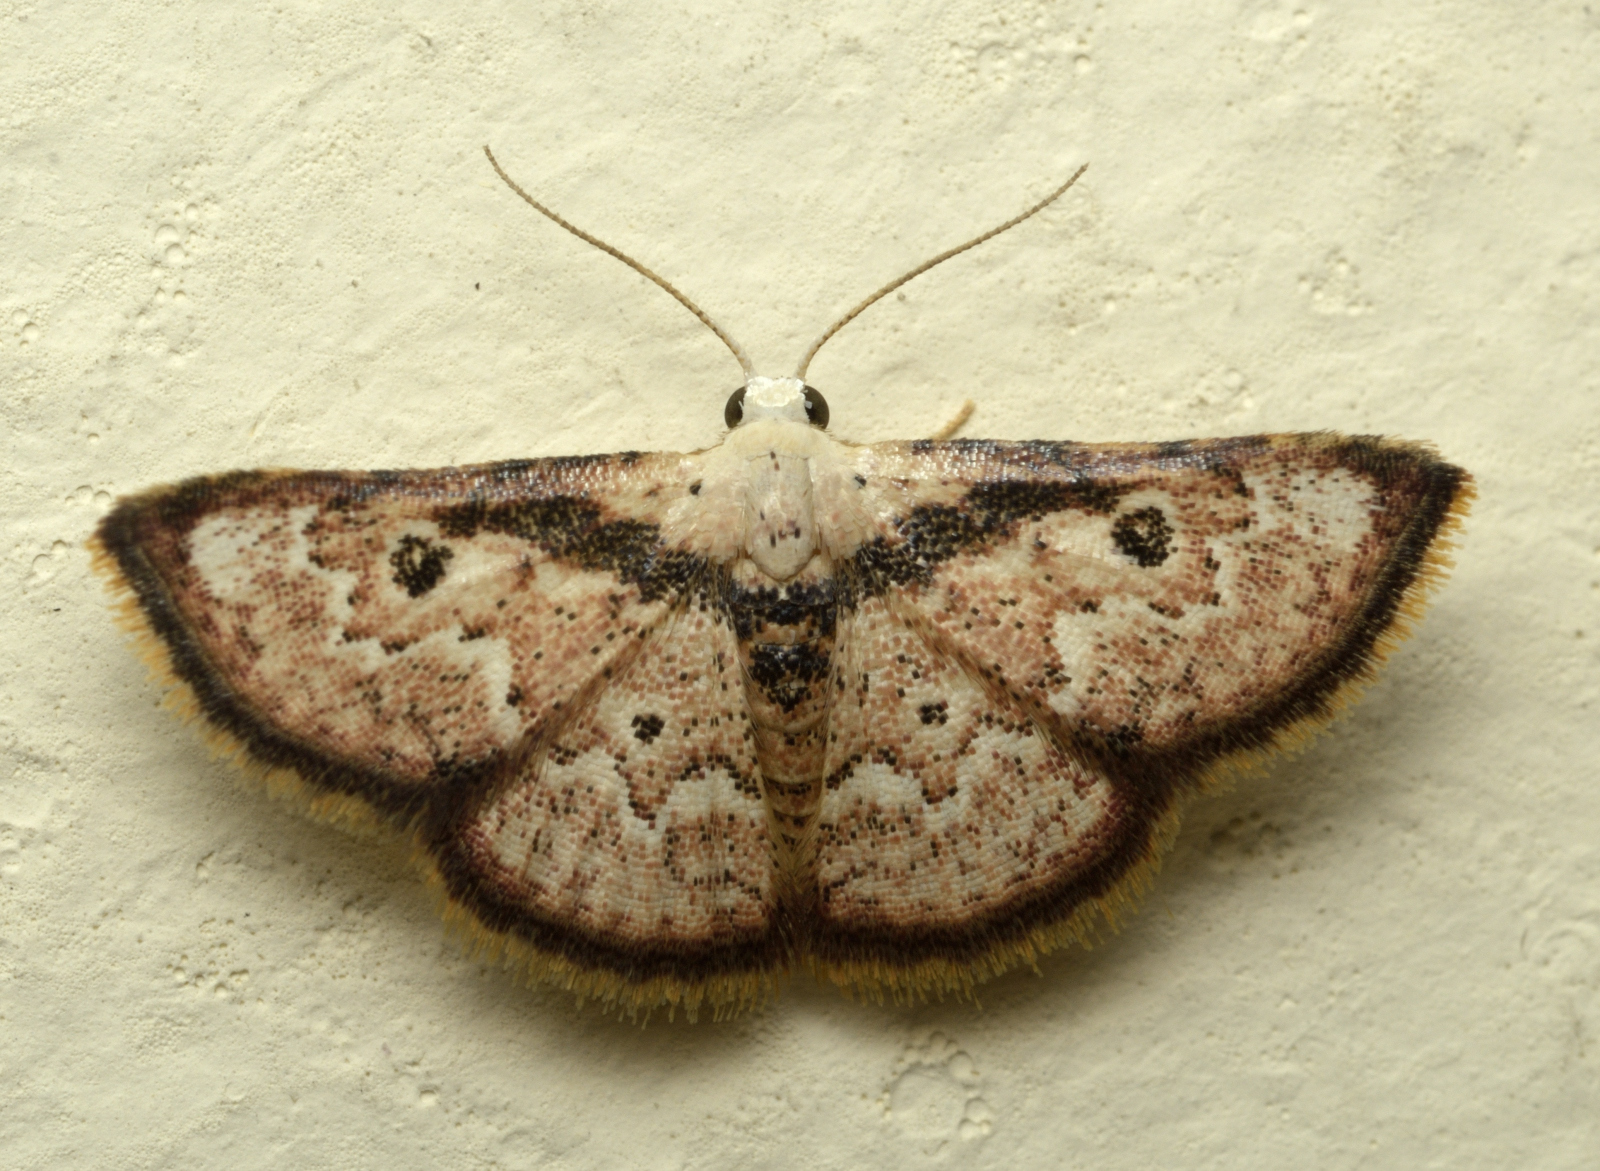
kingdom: Animalia
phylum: Arthropoda
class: Insecta
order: Lepidoptera
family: Noctuidae
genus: Enispa
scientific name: Enispa regulata
